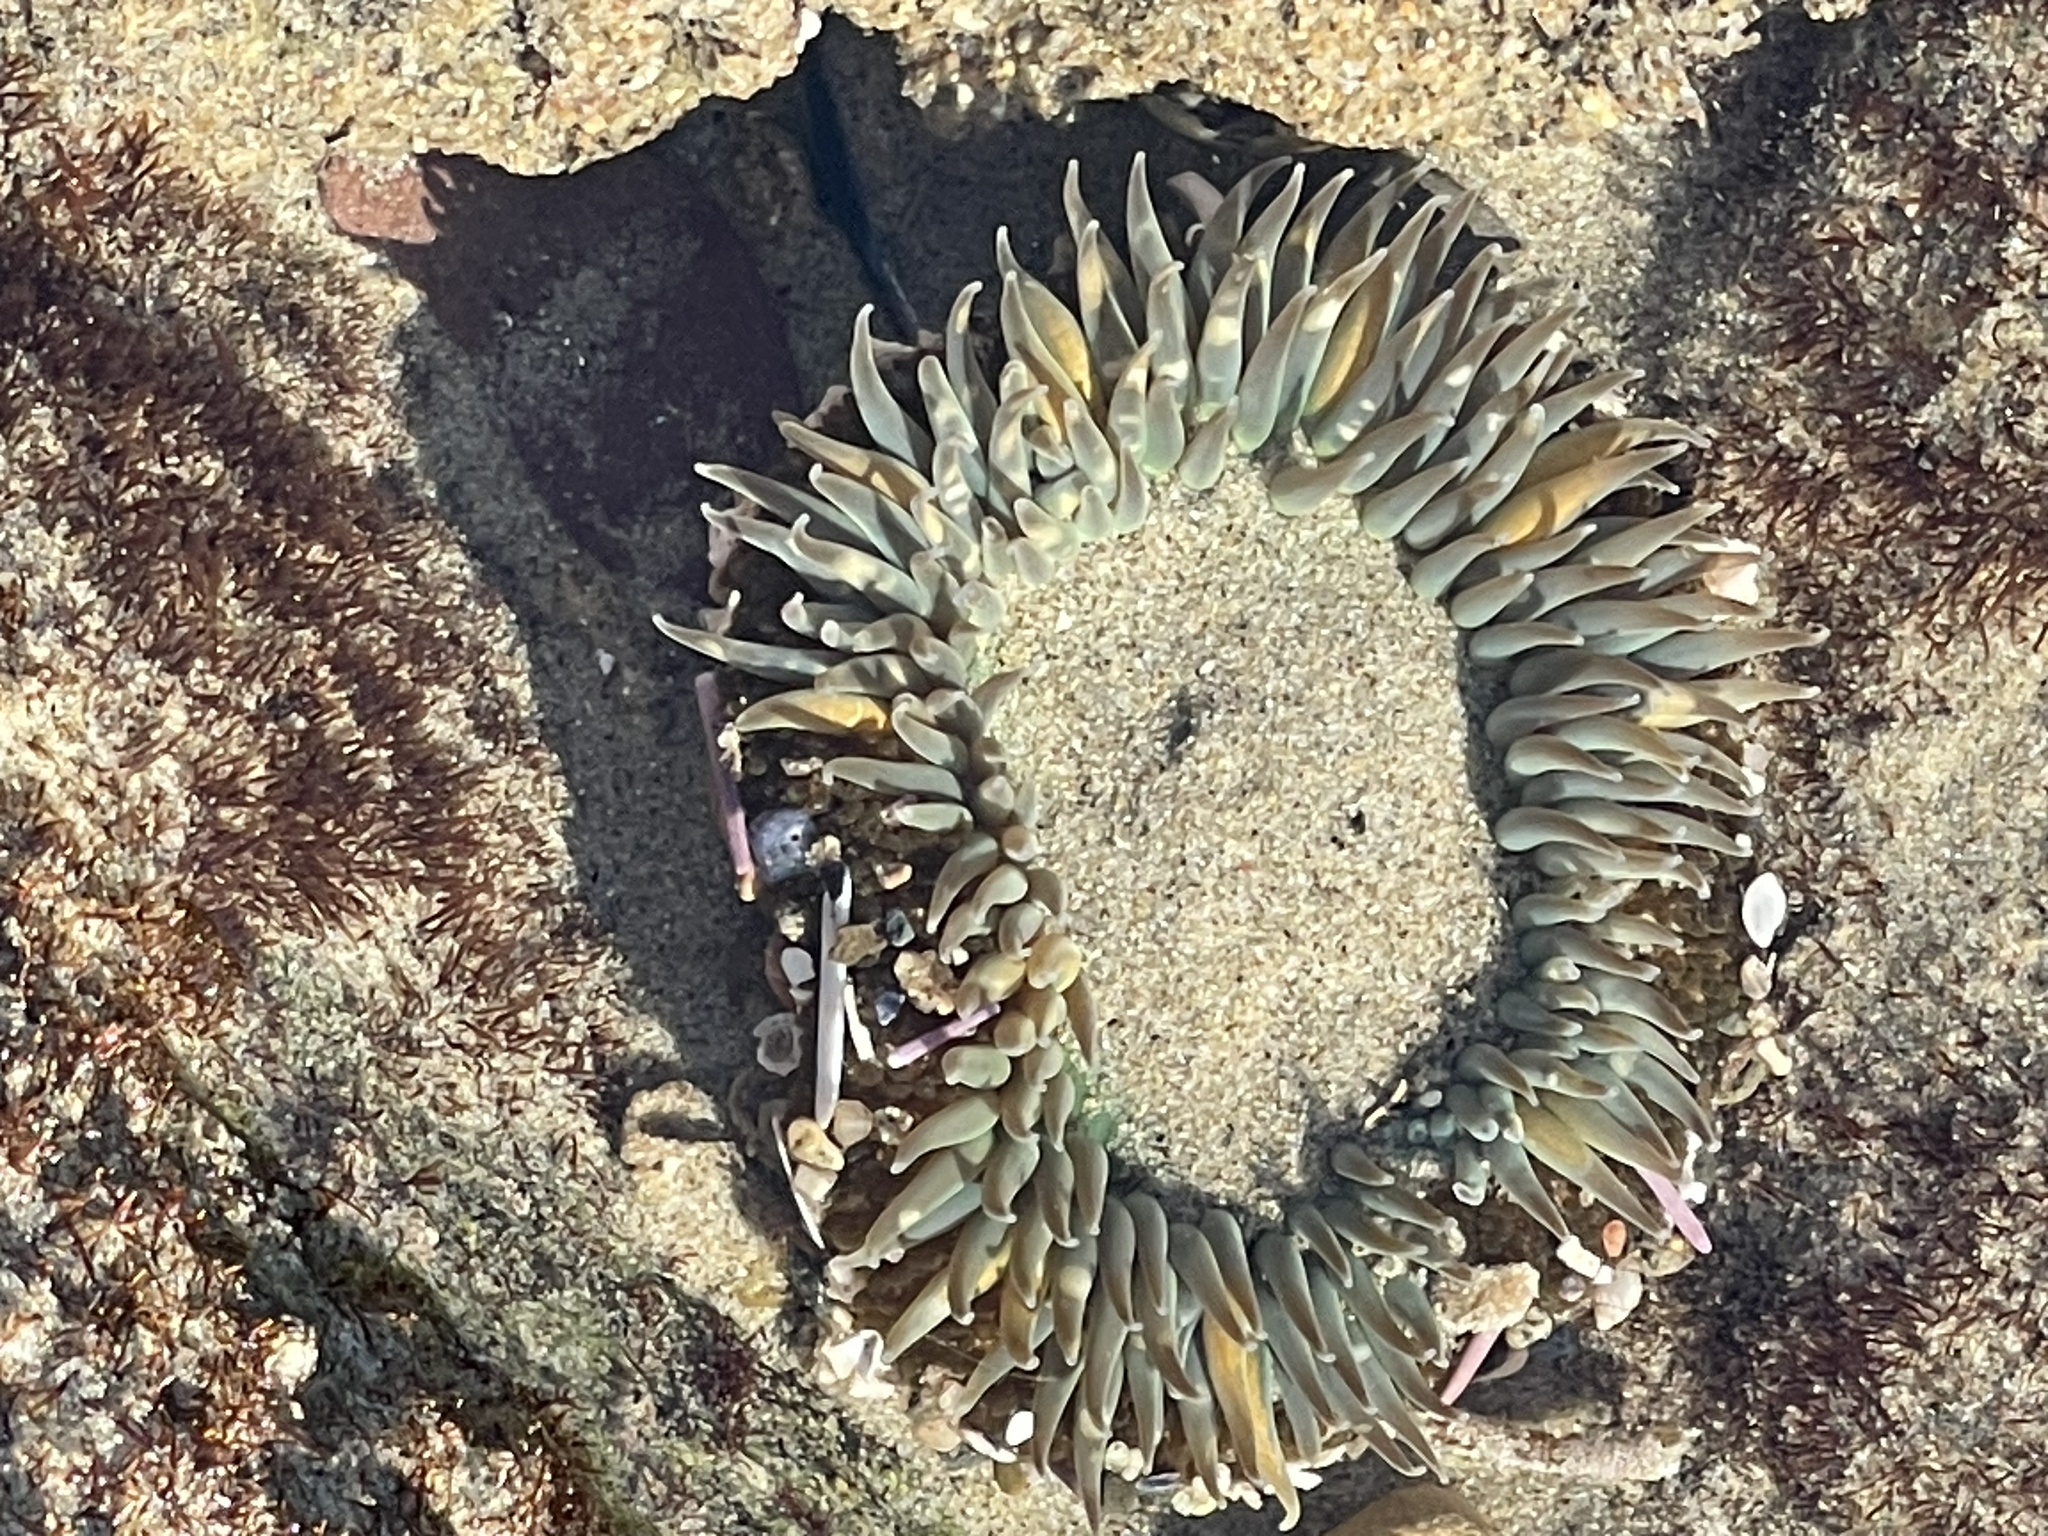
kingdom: Animalia
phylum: Cnidaria
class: Anthozoa
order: Actiniaria
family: Actiniidae
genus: Anthopleura
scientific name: Anthopleura sola
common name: Sun anemone
